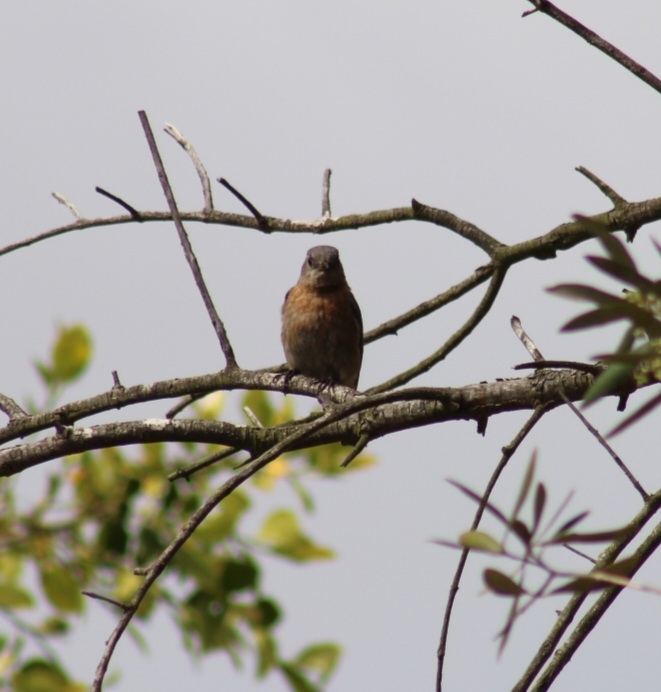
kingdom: Animalia
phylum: Chordata
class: Aves
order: Passeriformes
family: Turdidae
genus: Sialia
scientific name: Sialia mexicana
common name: Western bluebird
